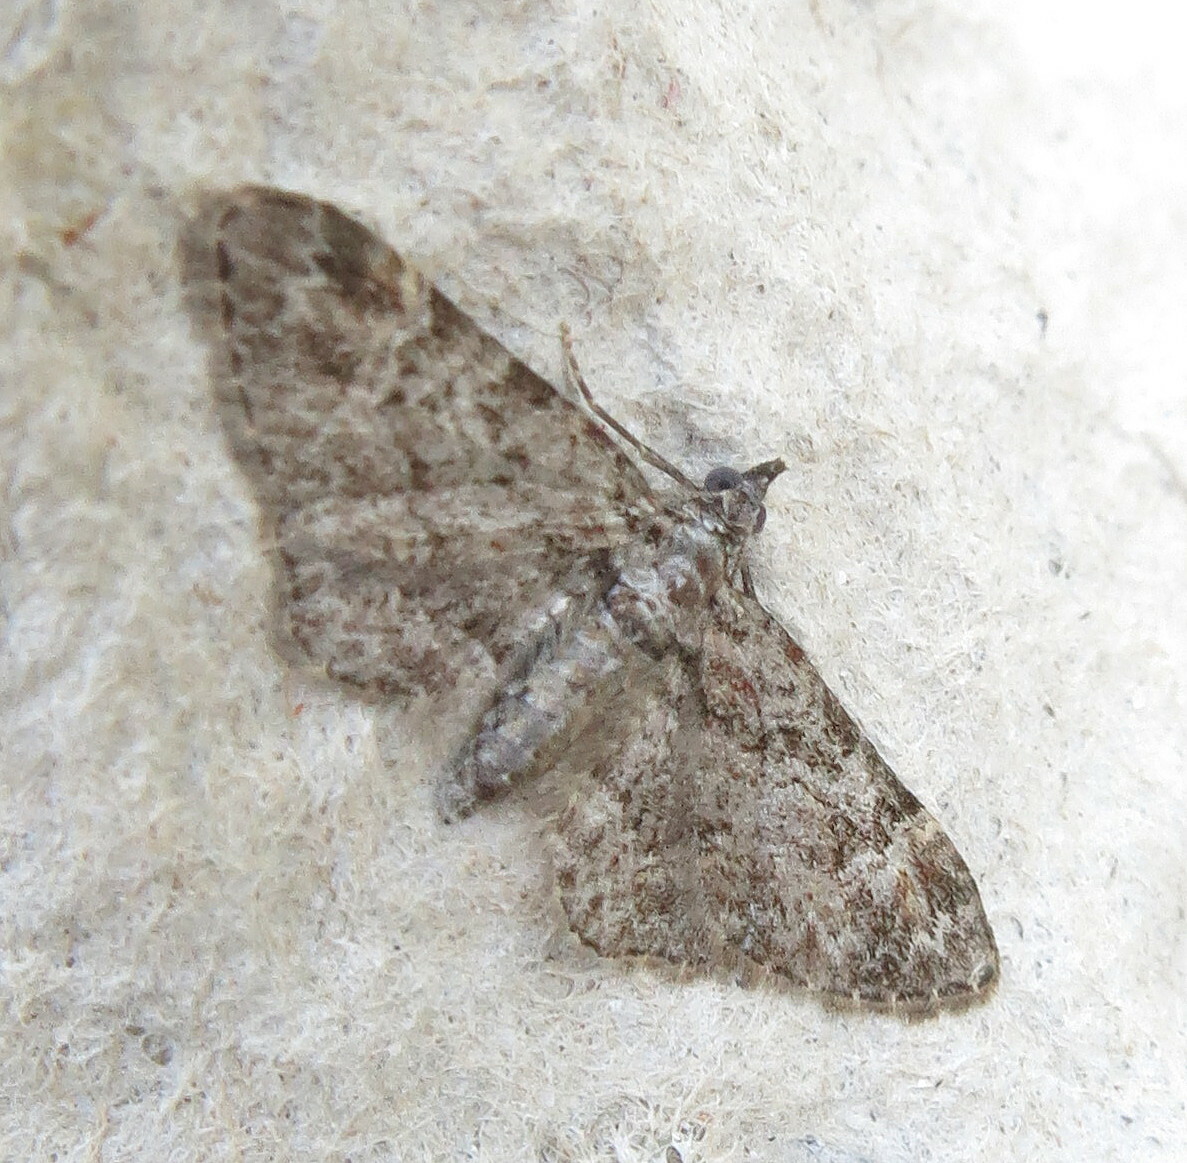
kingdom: Animalia
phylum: Arthropoda
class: Insecta
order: Lepidoptera
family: Geometridae
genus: Gymnoscelis
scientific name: Gymnoscelis rufifasciata
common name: Double-striped pug
